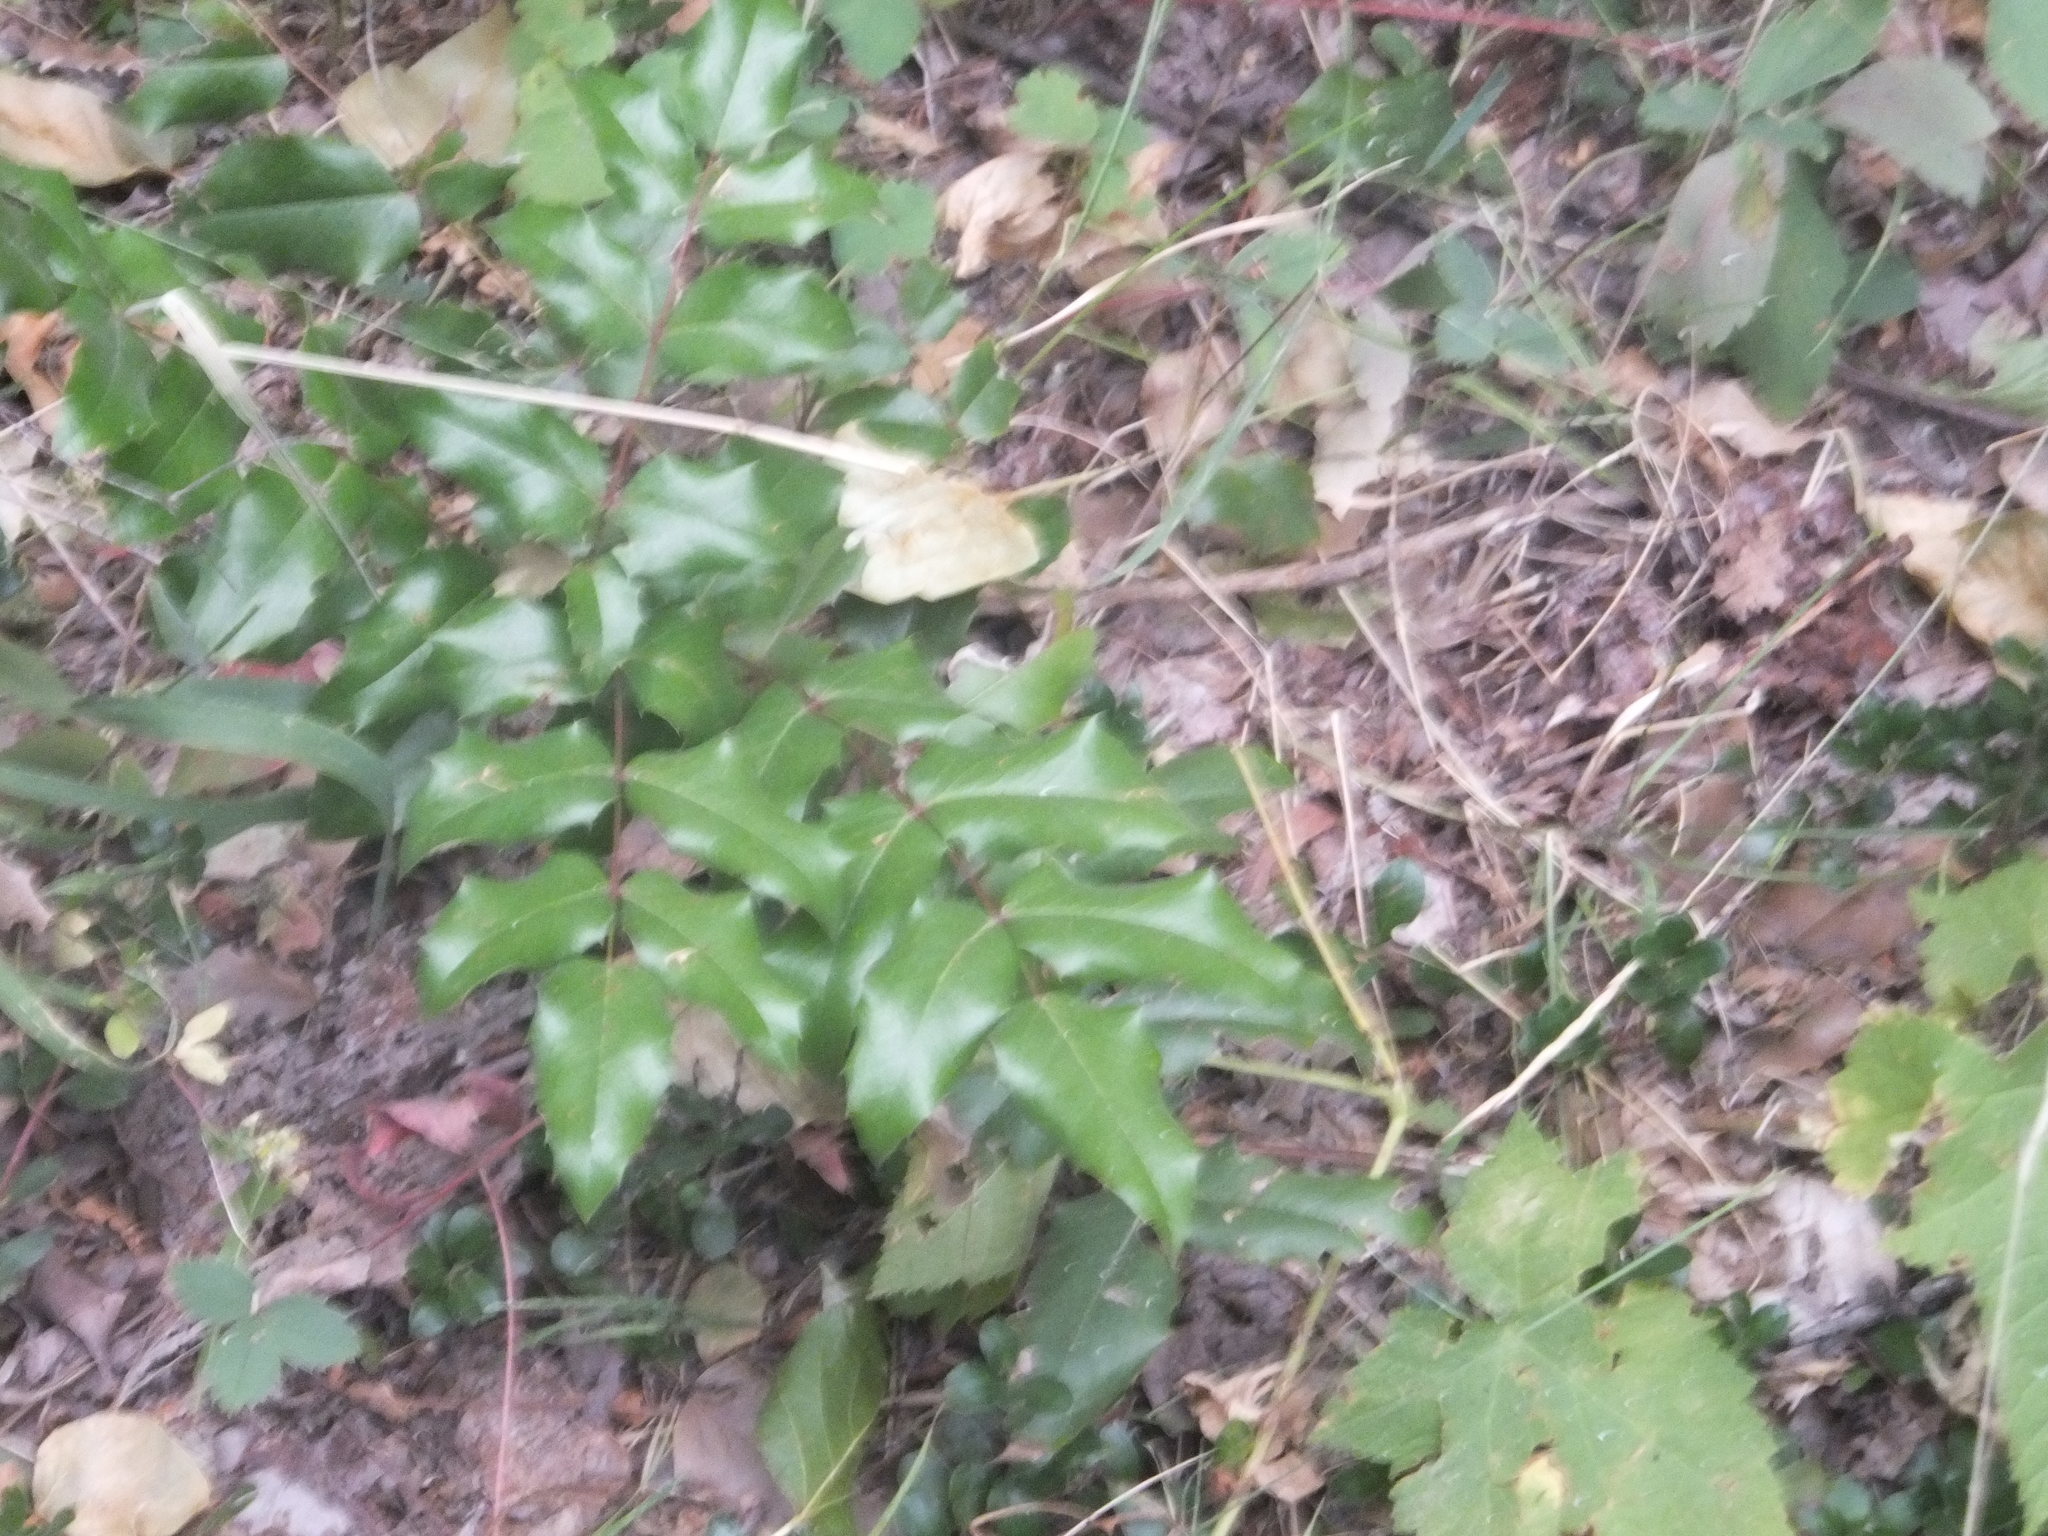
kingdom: Plantae
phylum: Tracheophyta
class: Magnoliopsida
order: Ranunculales
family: Berberidaceae
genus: Mahonia
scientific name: Mahonia aquifolium
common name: Oregon-grape
